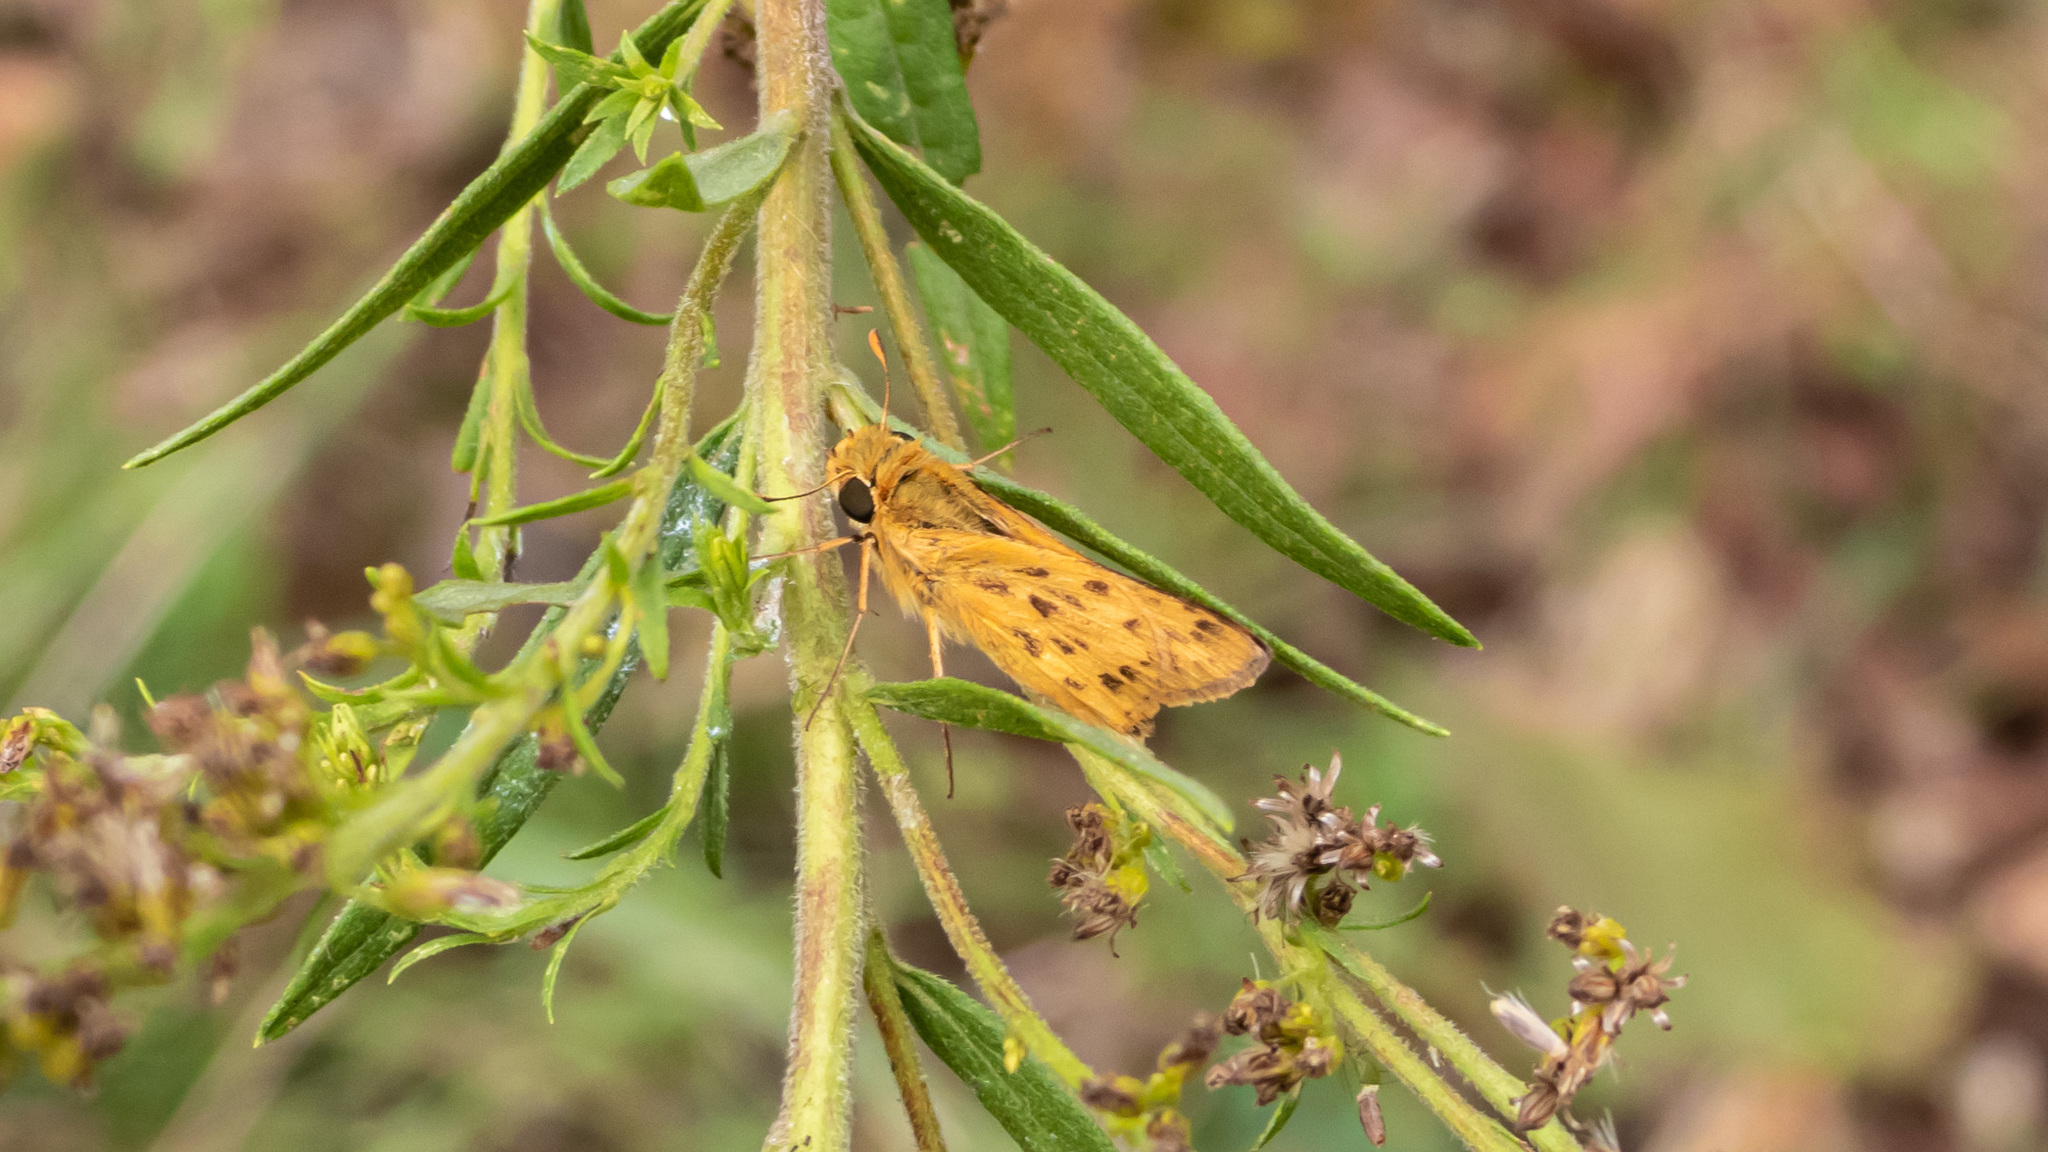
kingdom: Animalia
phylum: Arthropoda
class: Insecta
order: Lepidoptera
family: Hesperiidae
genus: Hylephila
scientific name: Hylephila phyleus
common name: Fiery skipper
